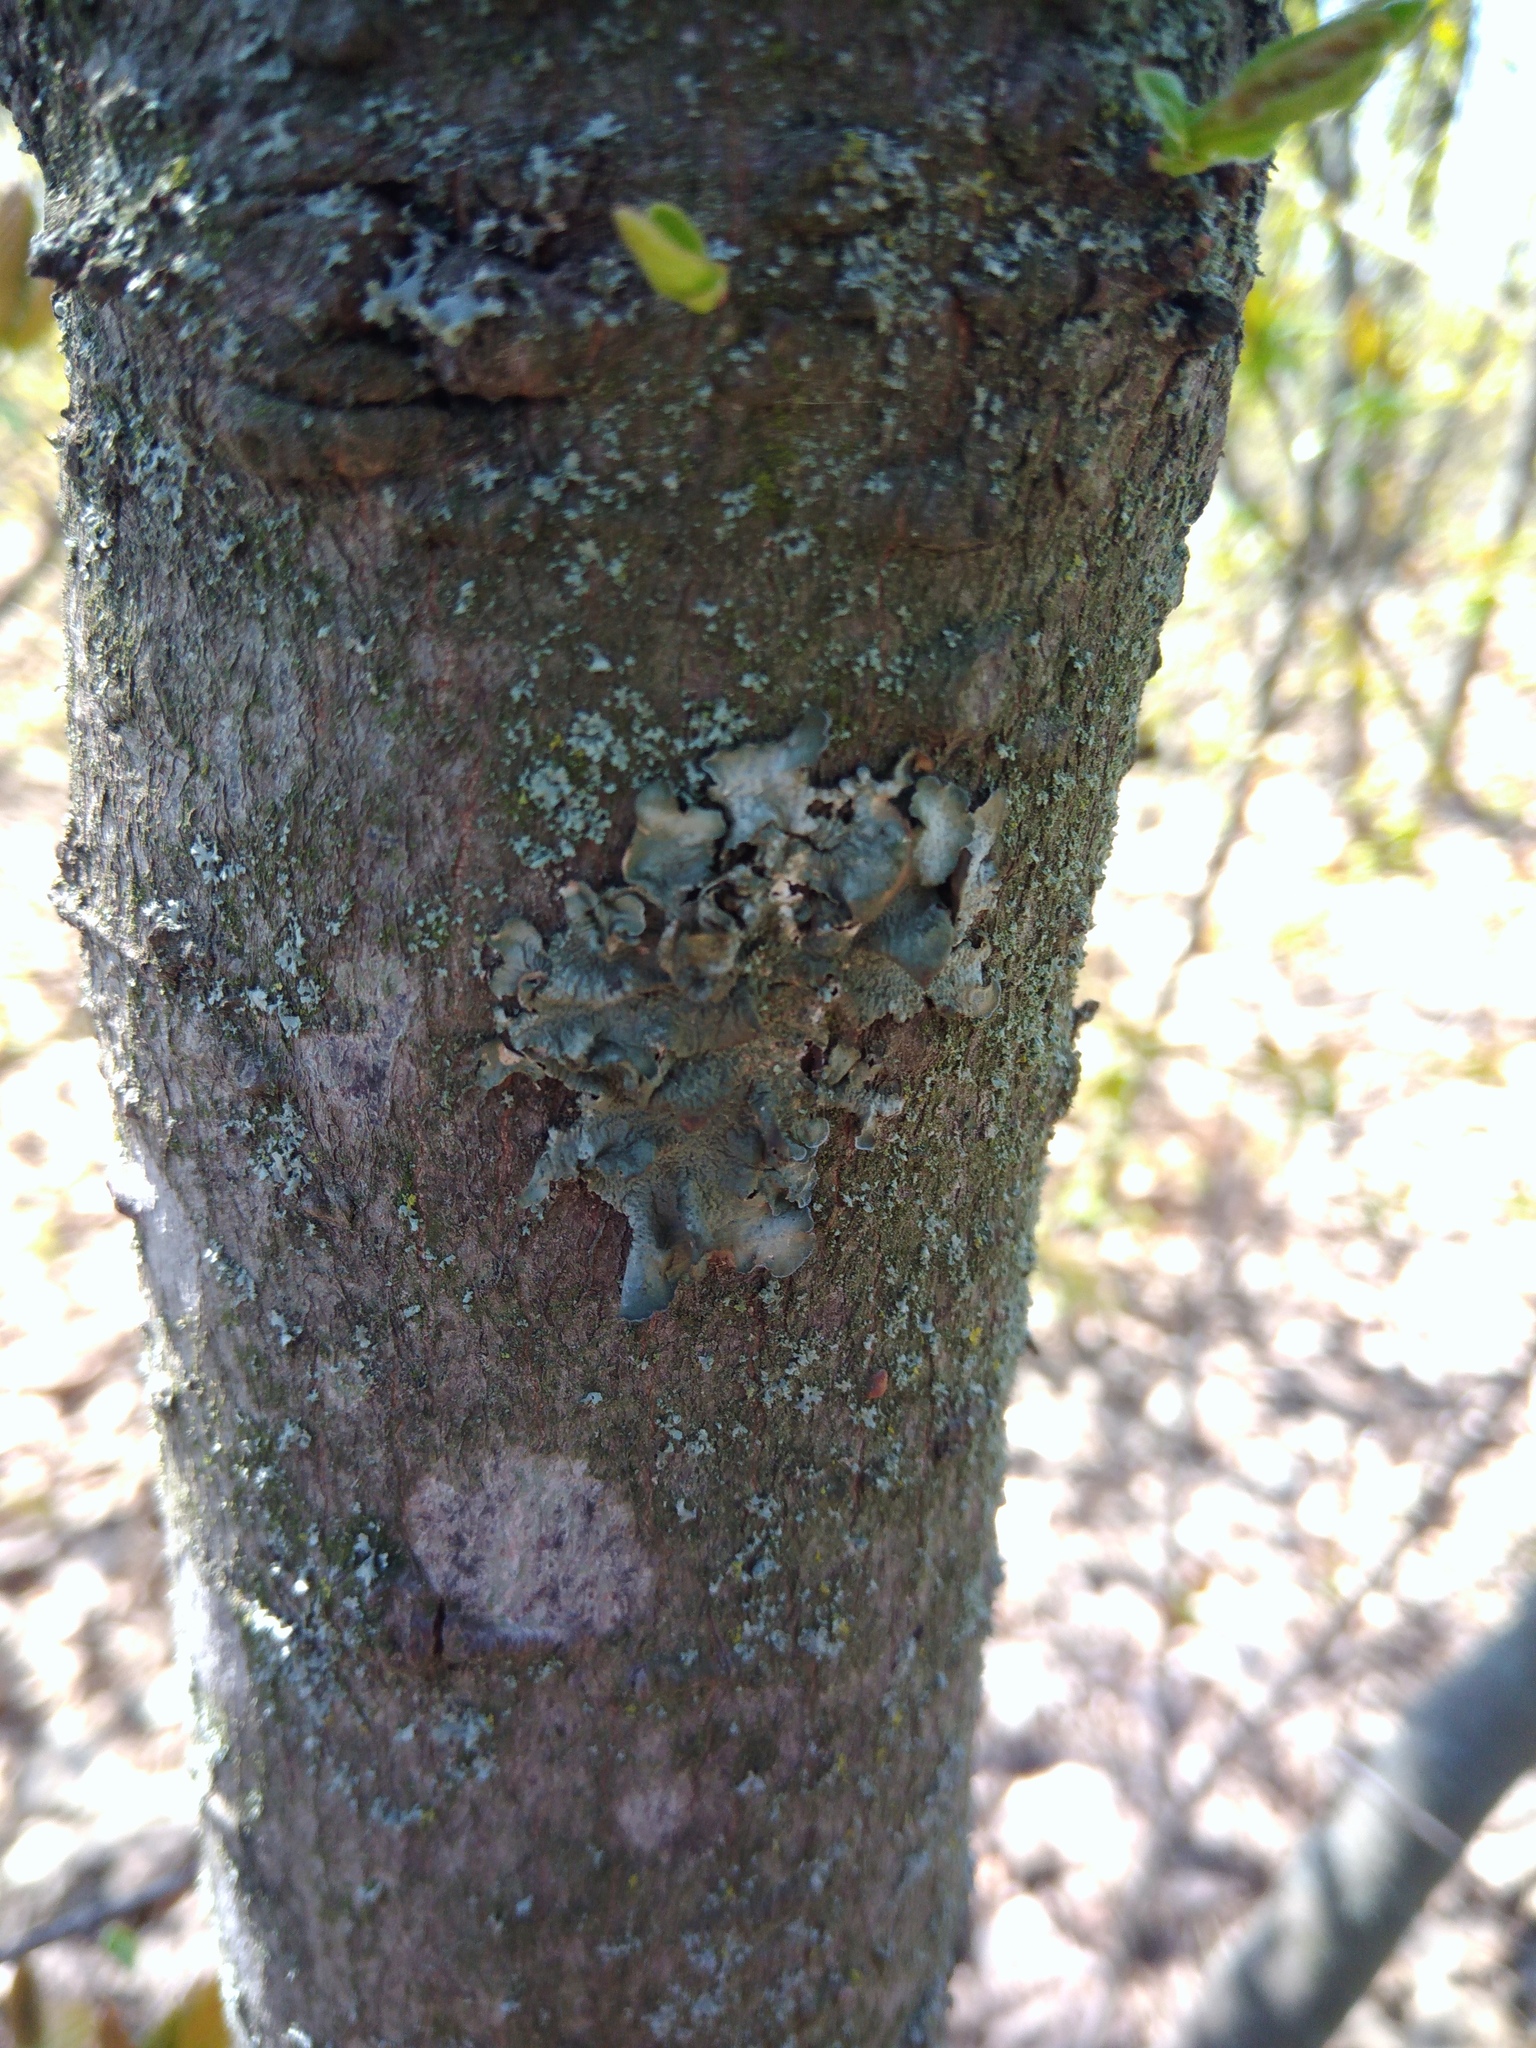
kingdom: Fungi
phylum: Ascomycota
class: Lecanoromycetes
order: Lecanorales
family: Parmeliaceae
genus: Pleurosticta
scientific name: Pleurosticta acetabulum
